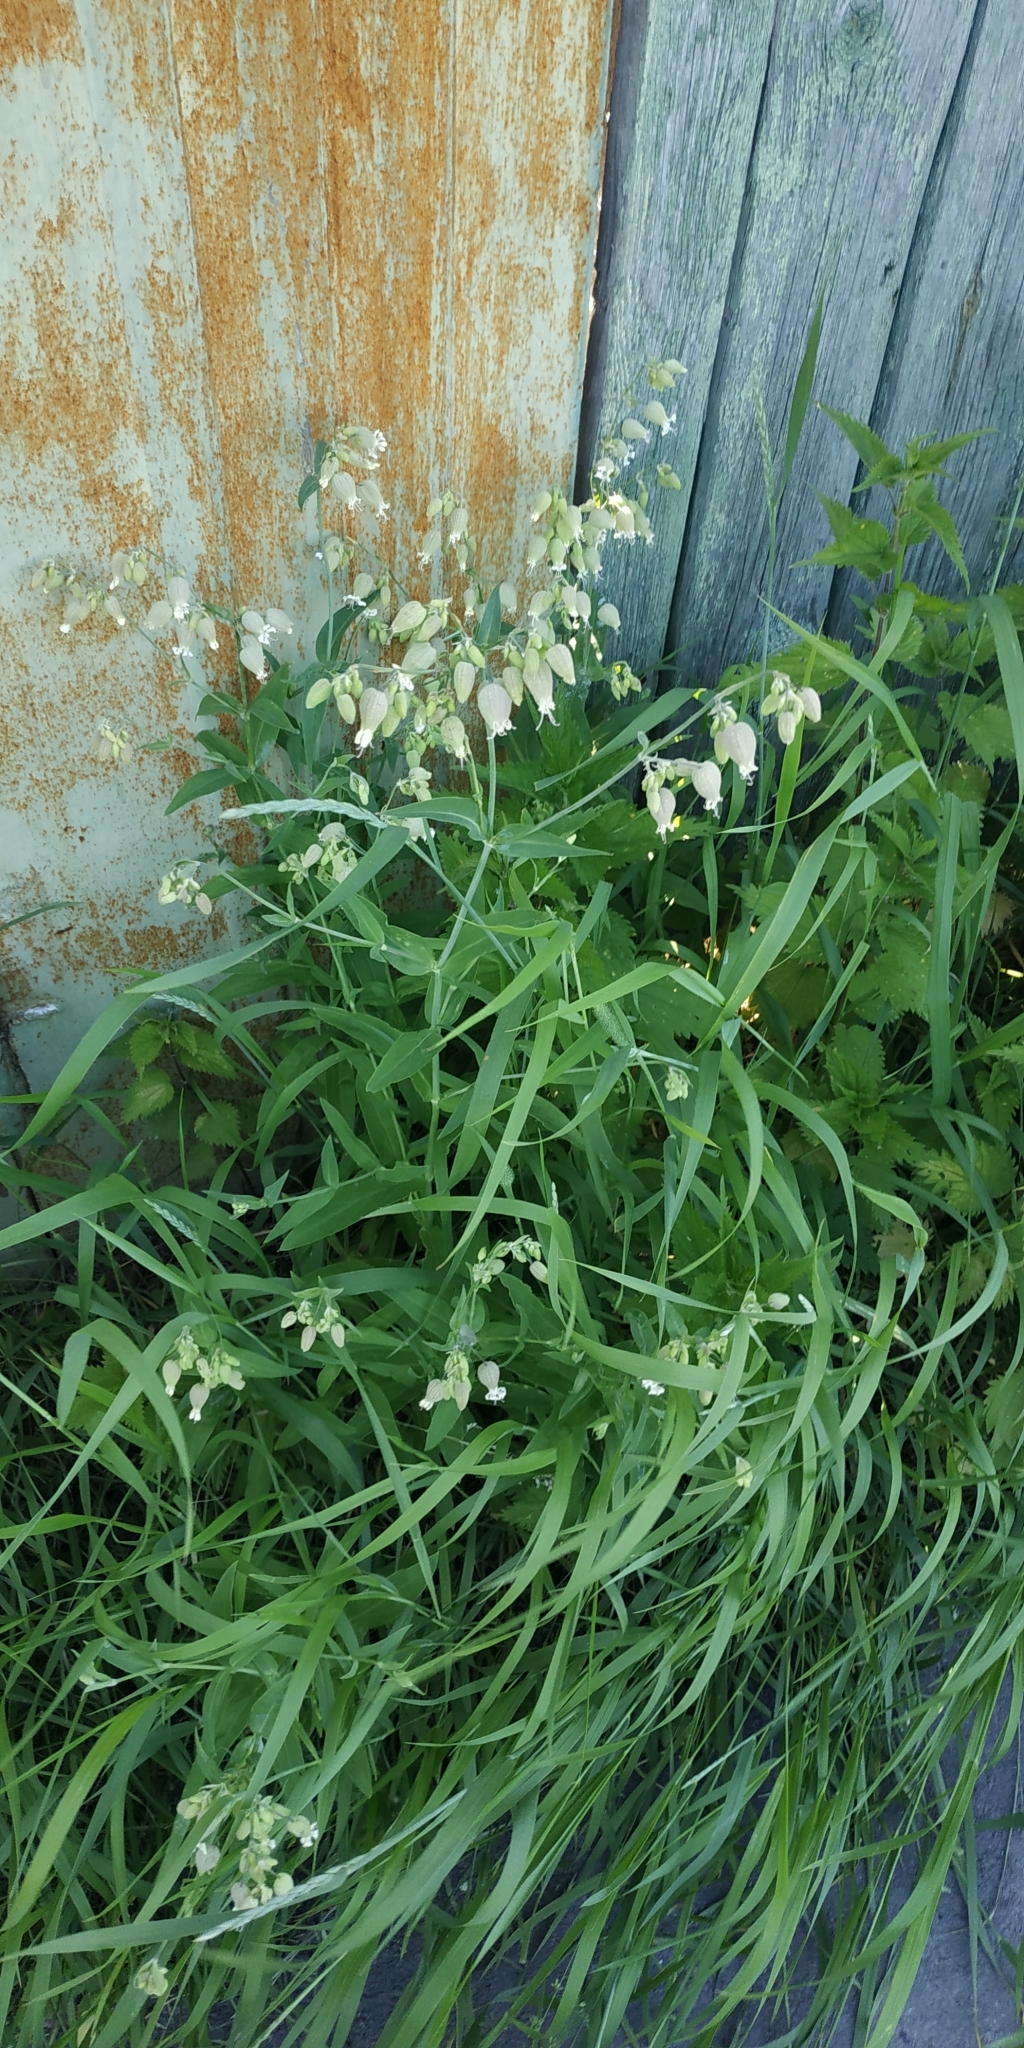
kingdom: Plantae
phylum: Tracheophyta
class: Magnoliopsida
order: Caryophyllales
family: Caryophyllaceae
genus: Silene
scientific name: Silene vulgaris
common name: Bladder campion
